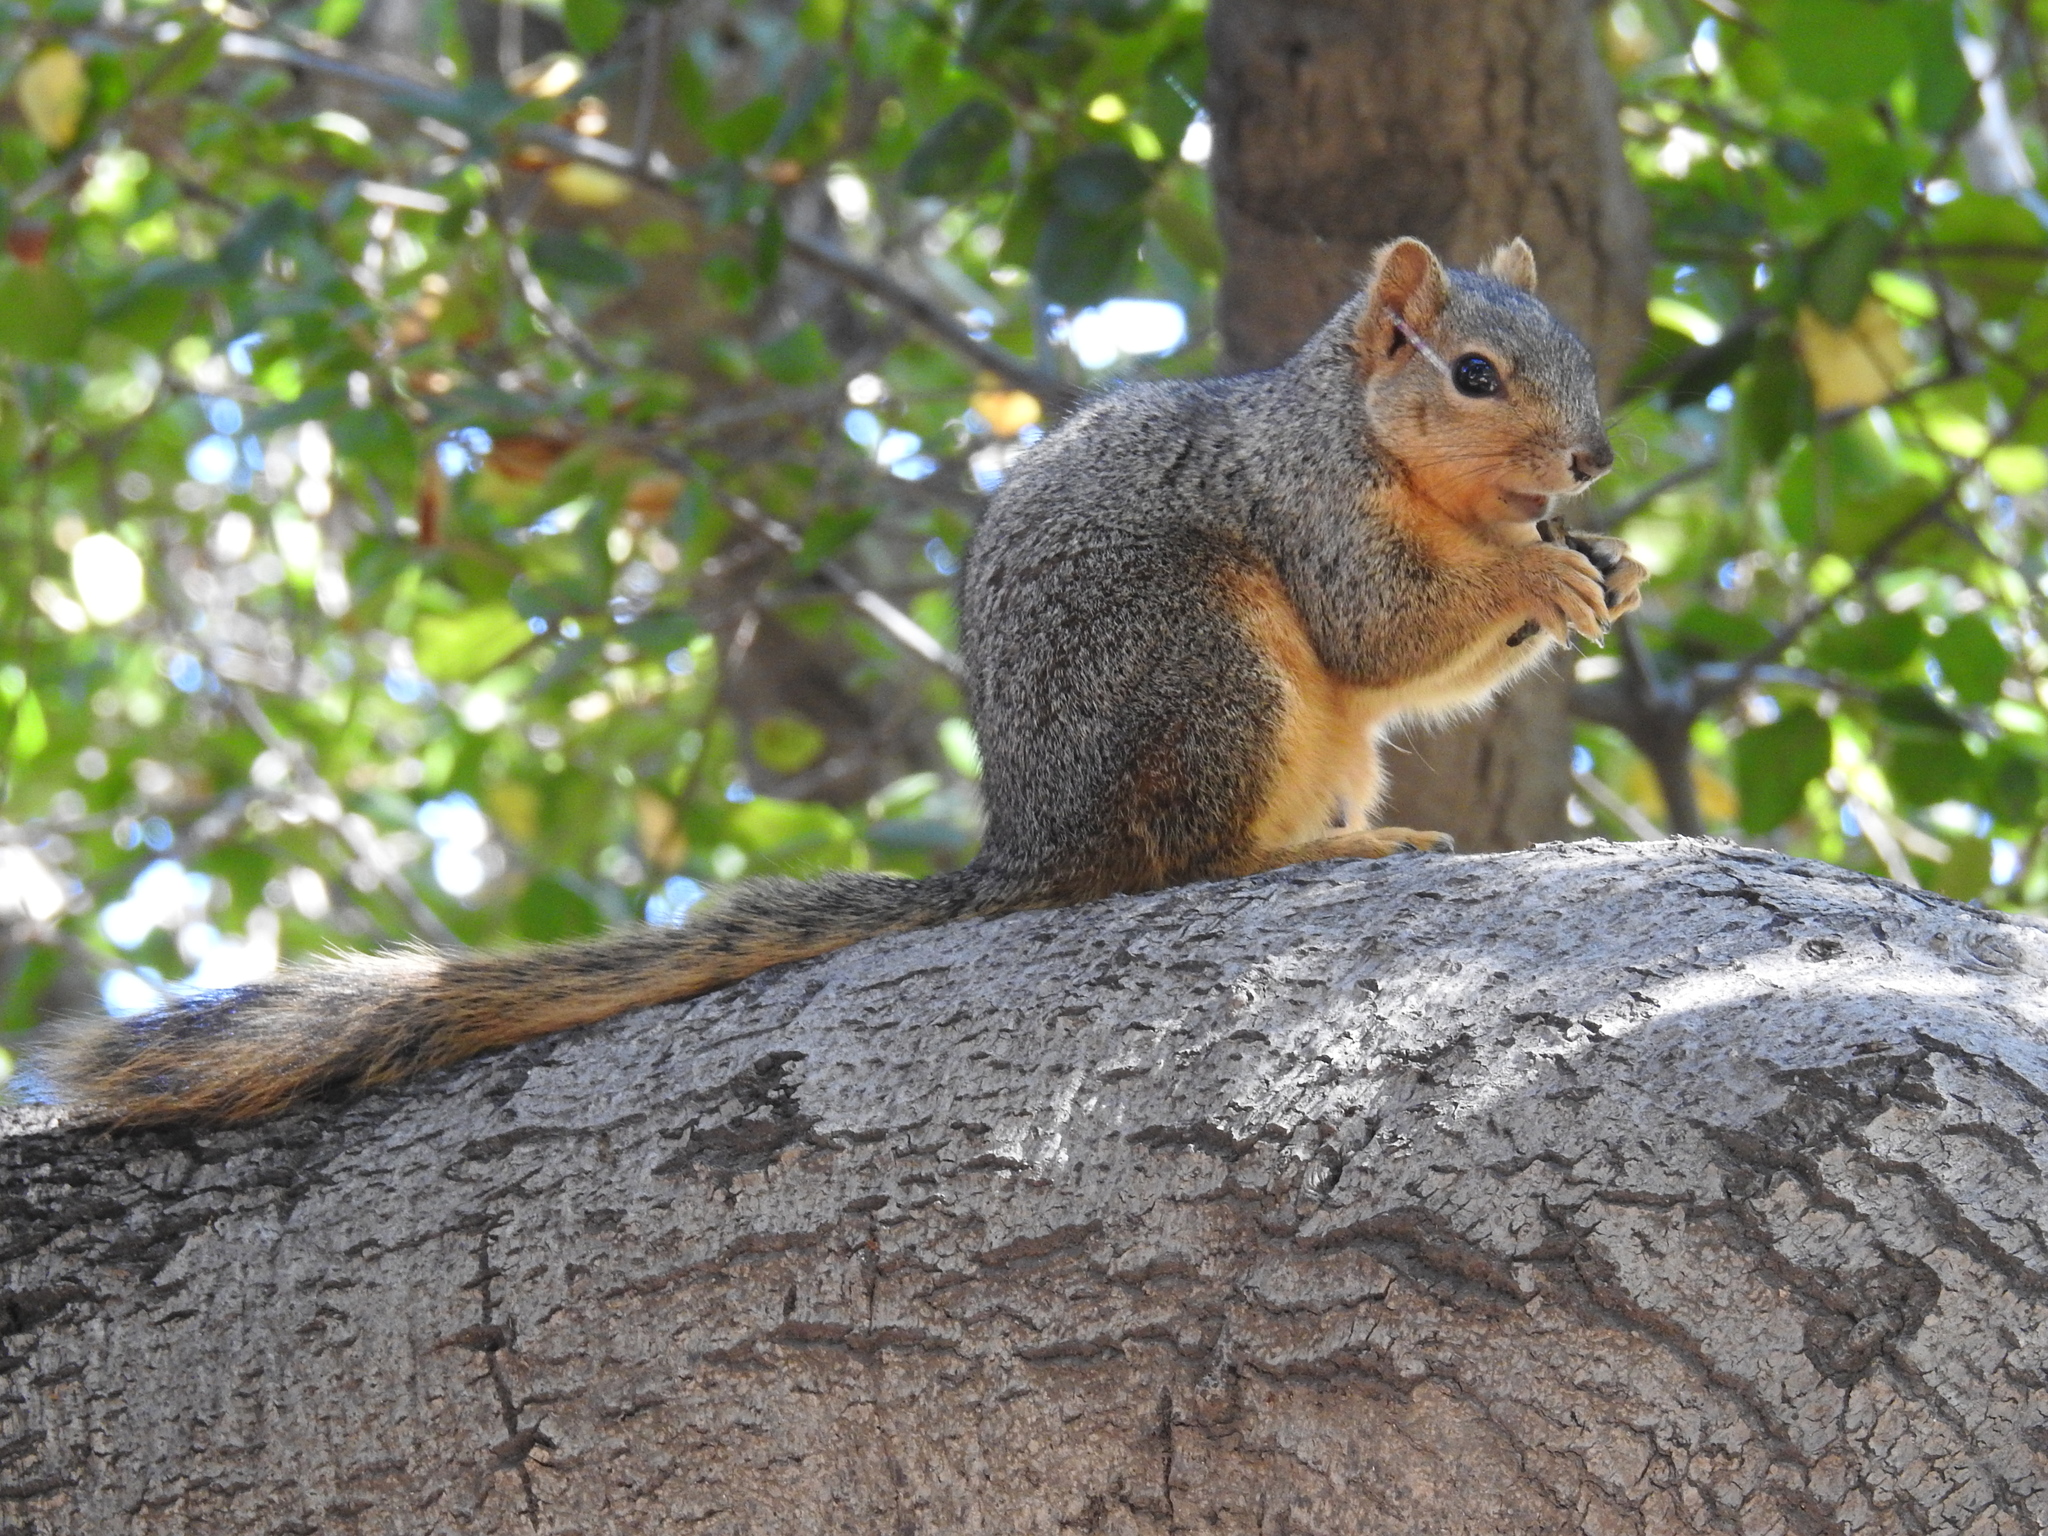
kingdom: Animalia
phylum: Chordata
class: Mammalia
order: Rodentia
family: Sciuridae
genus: Sciurus
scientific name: Sciurus niger
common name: Fox squirrel
